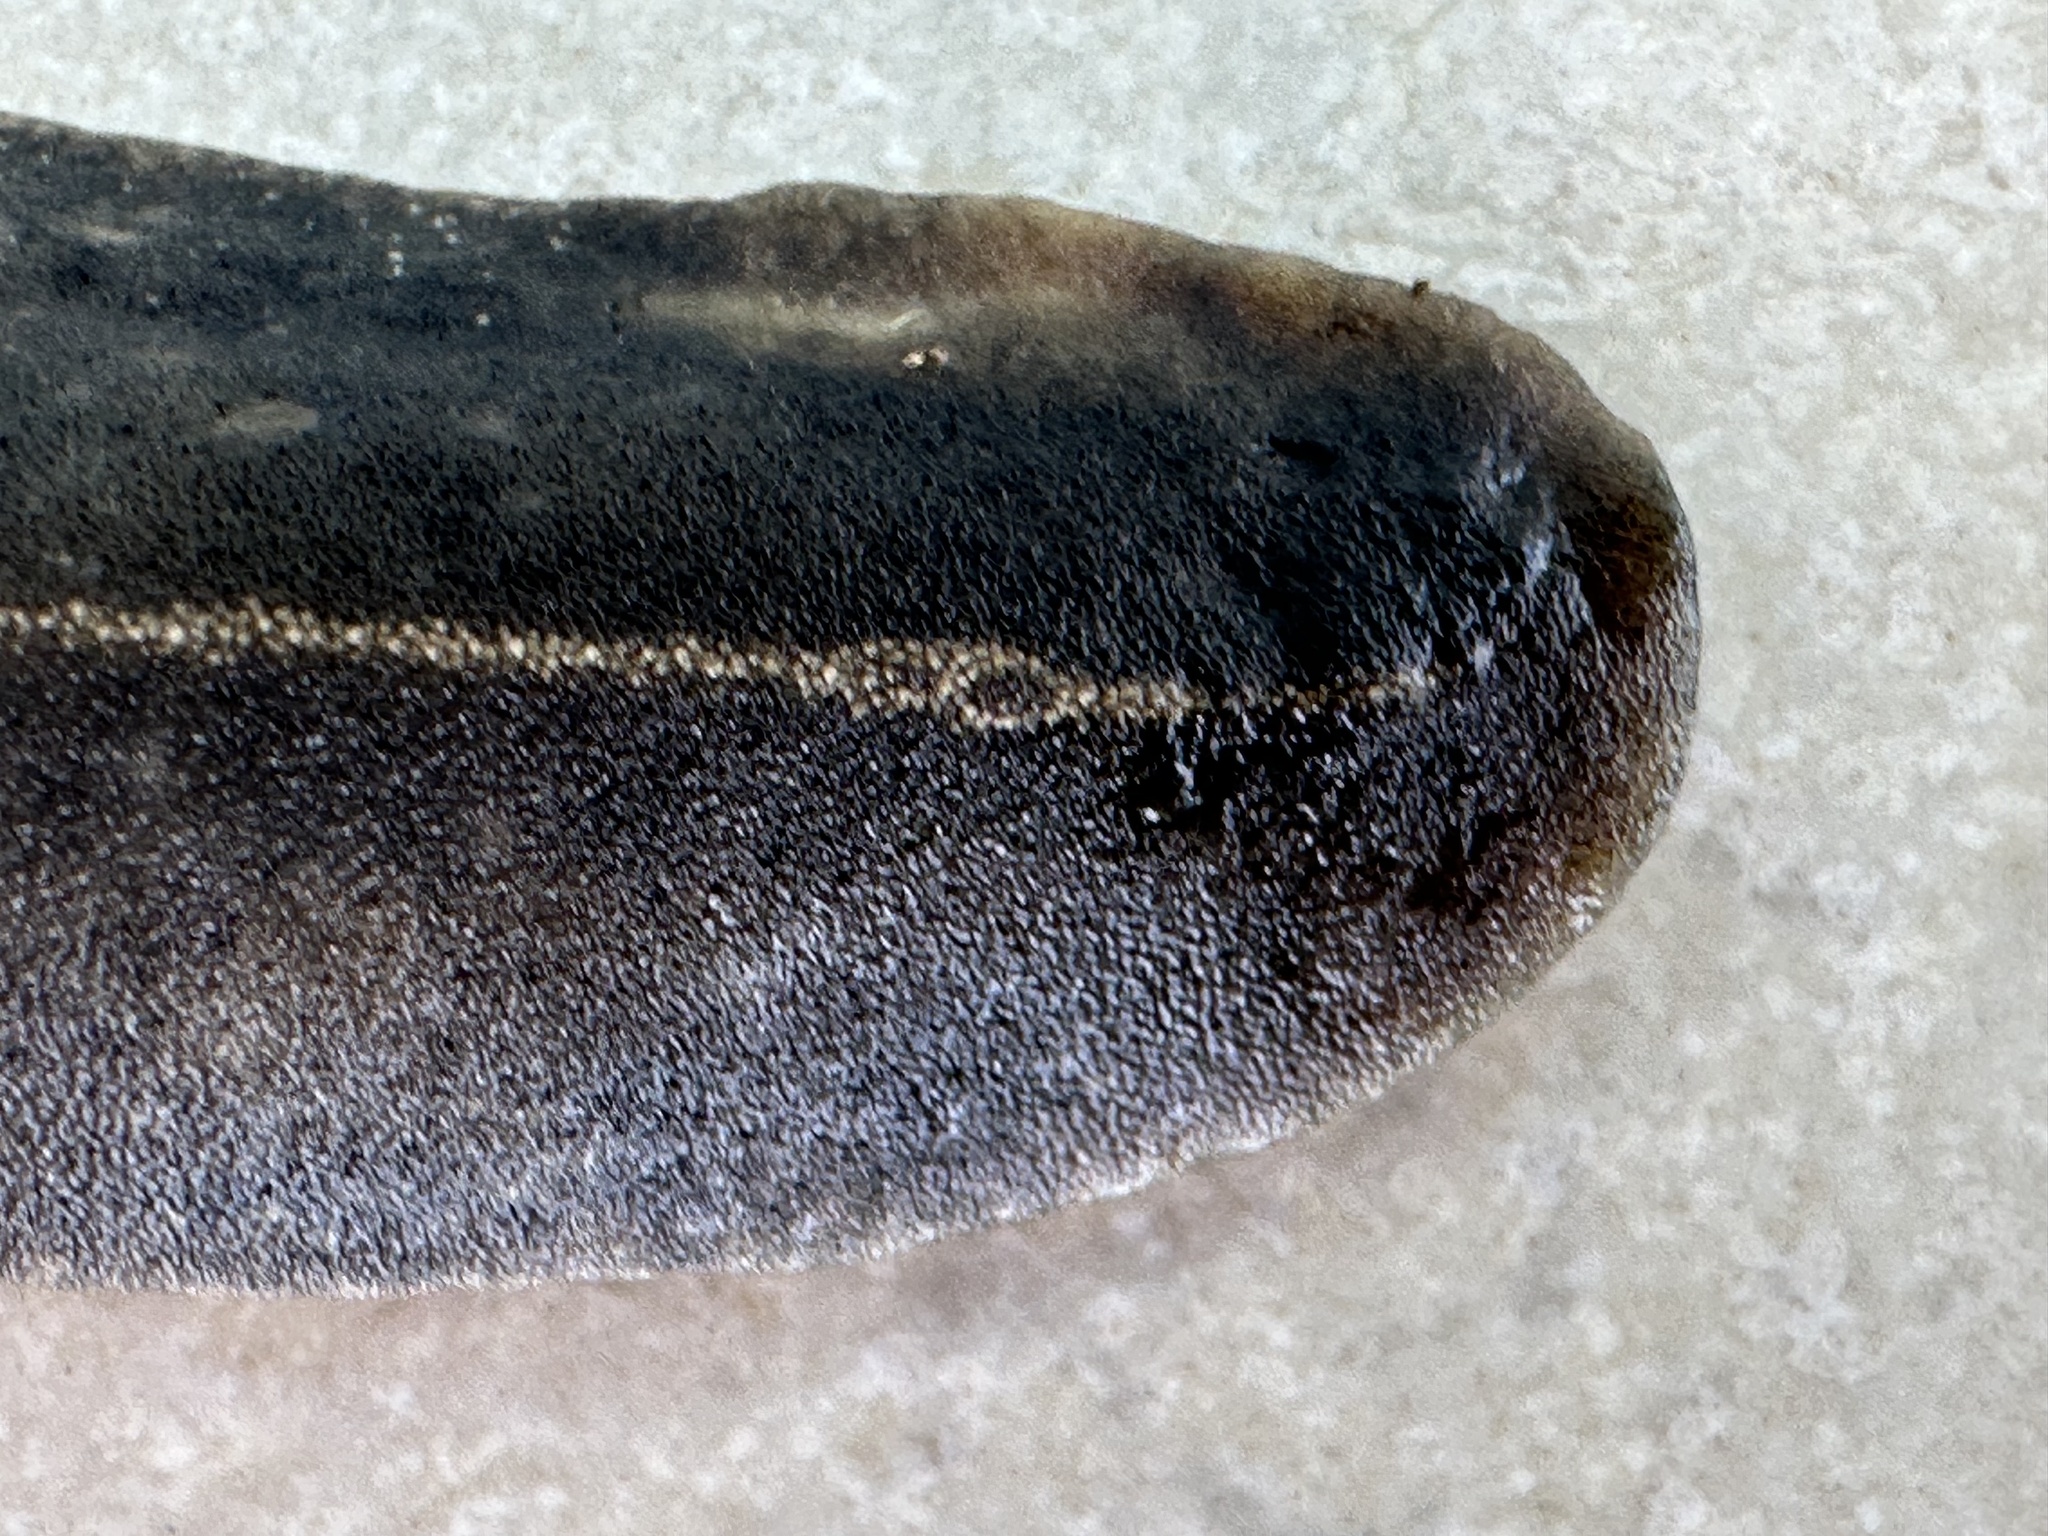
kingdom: Animalia
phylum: Mollusca
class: Gastropoda
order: Systellommatophora
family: Veronicellidae
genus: Laevicaulis
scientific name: Laevicaulis alte
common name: Tropical leatherleaf
